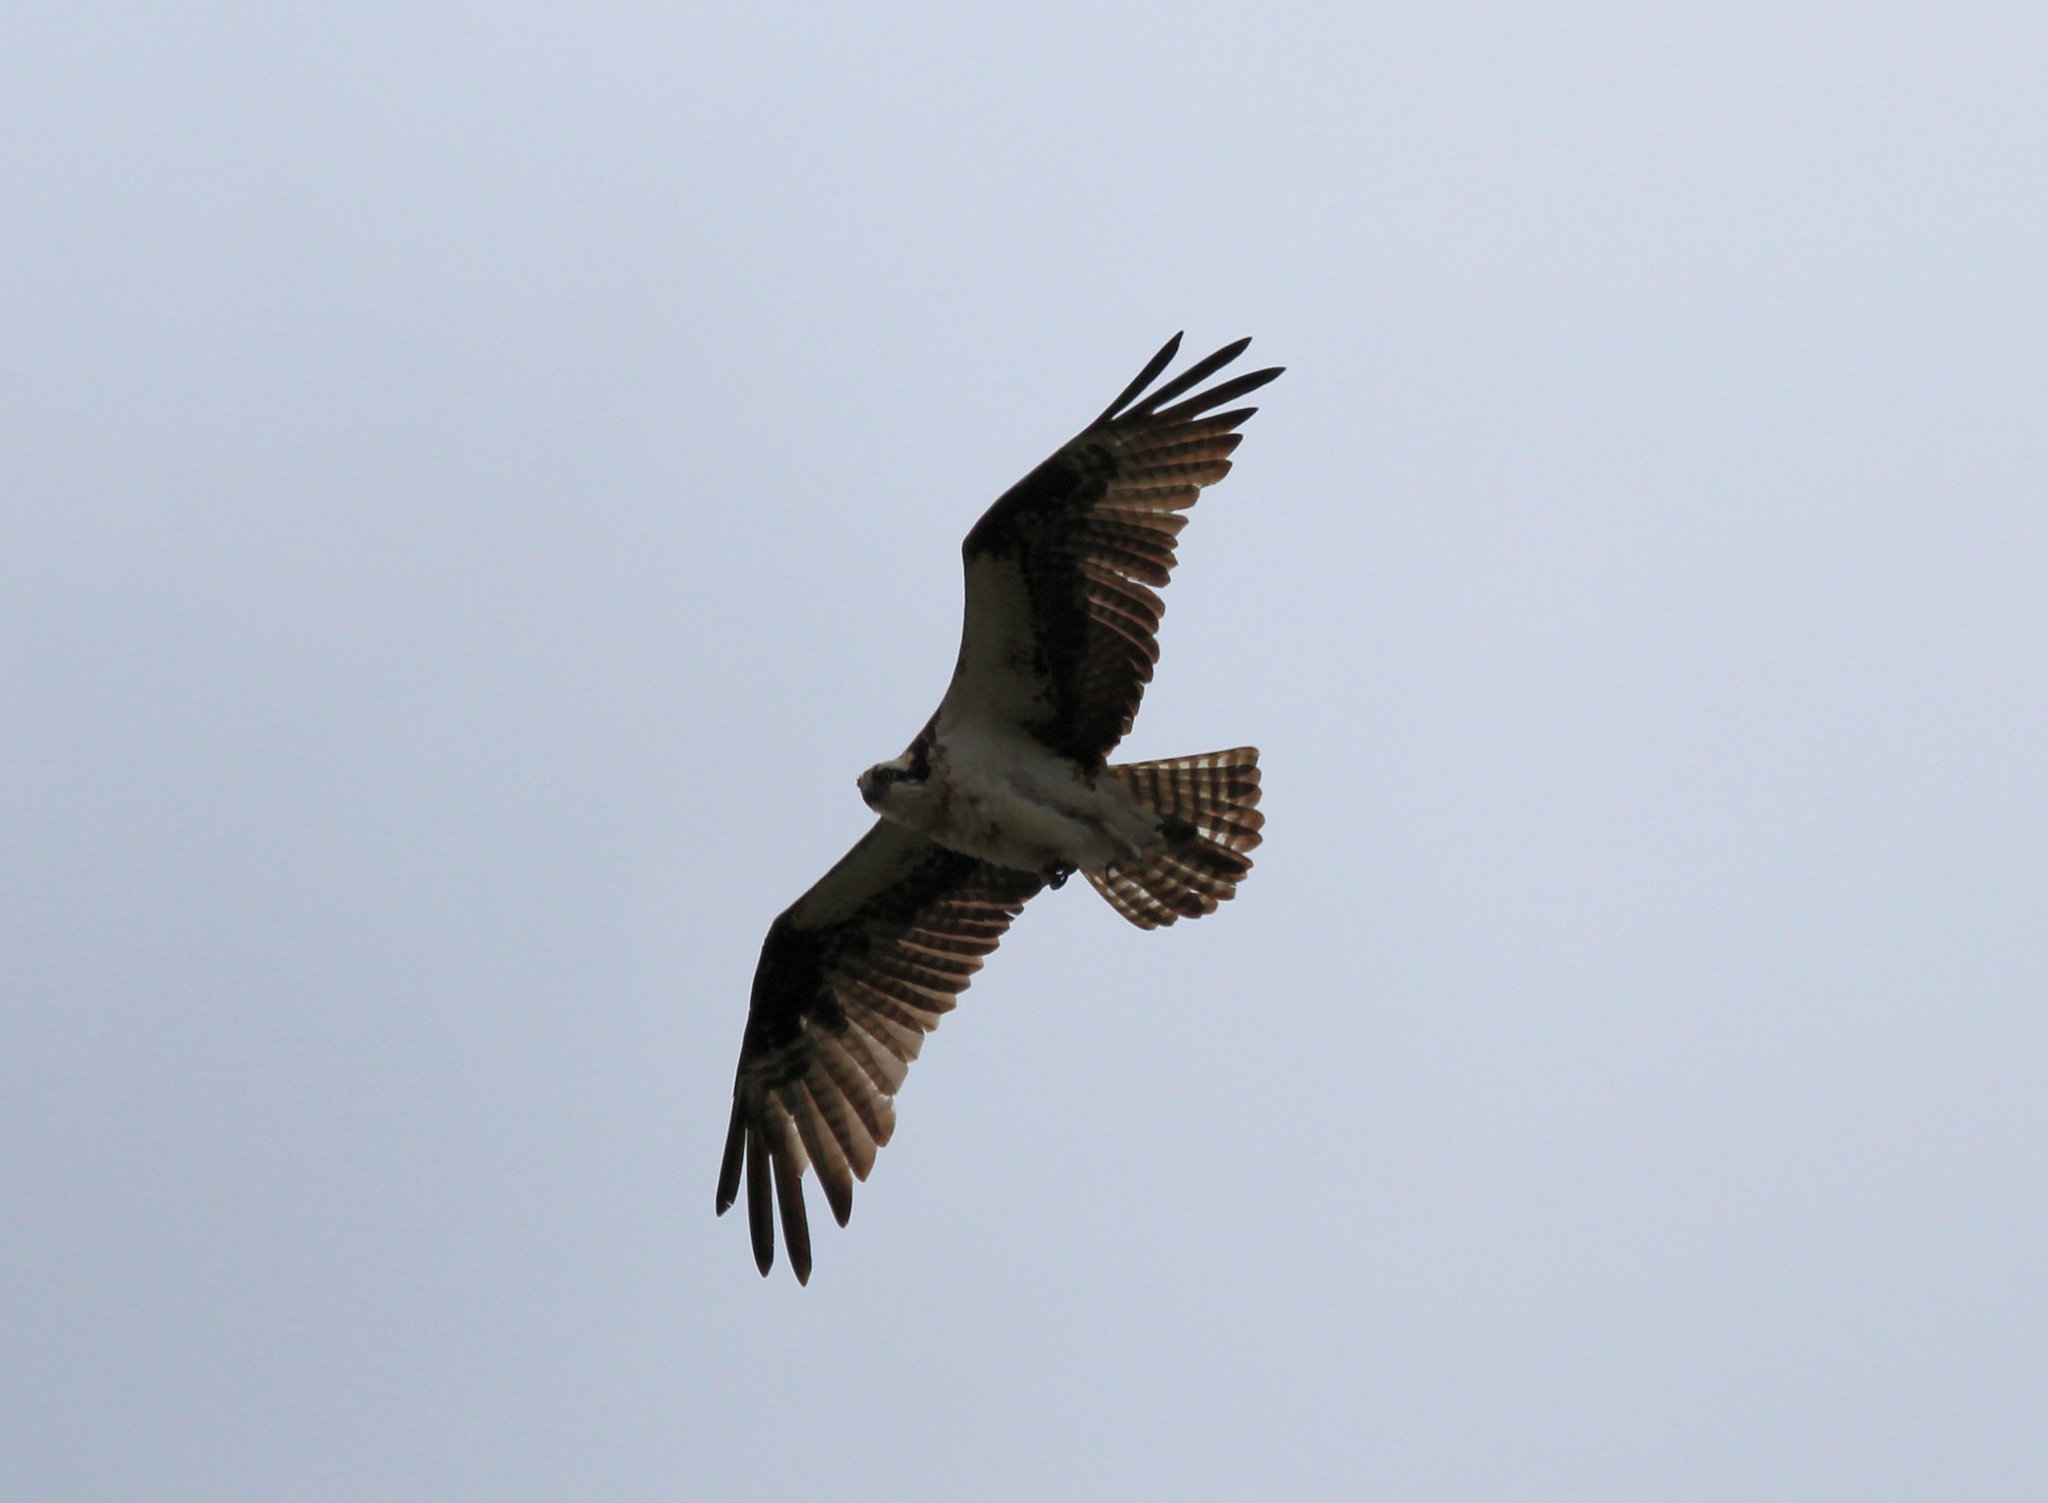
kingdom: Animalia
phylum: Chordata
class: Aves
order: Accipitriformes
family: Pandionidae
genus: Pandion
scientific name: Pandion haliaetus
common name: Osprey
